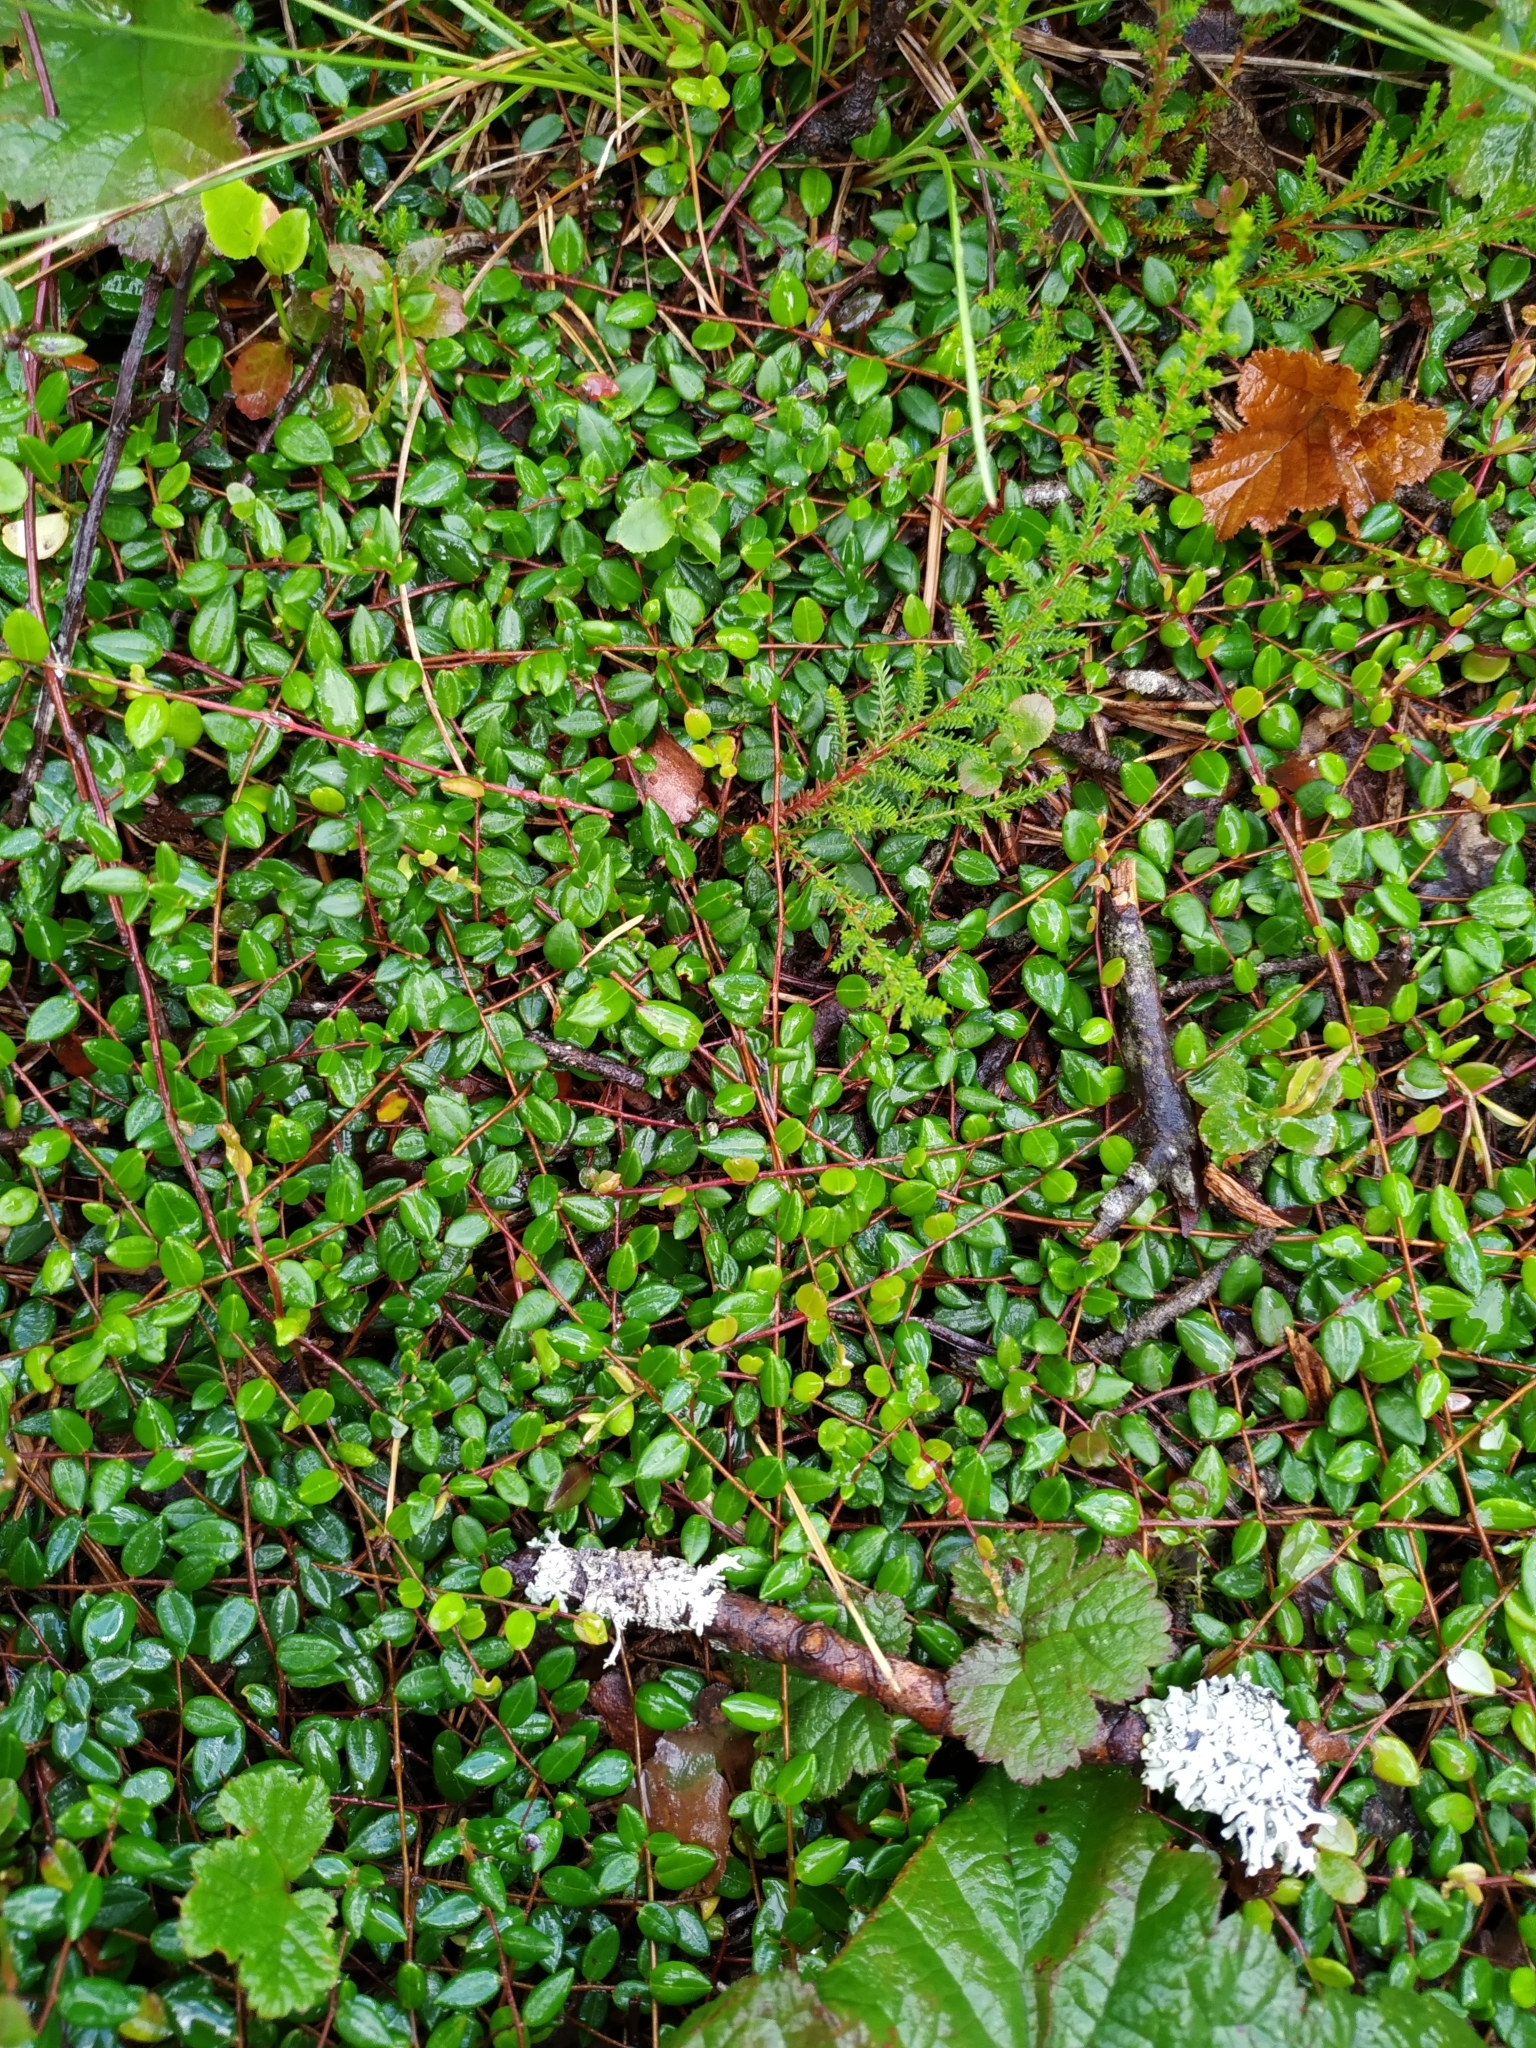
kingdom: Plantae
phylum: Tracheophyta
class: Magnoliopsida
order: Ericales
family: Ericaceae
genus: Vaccinium
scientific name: Vaccinium oxycoccos
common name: Cranberry
